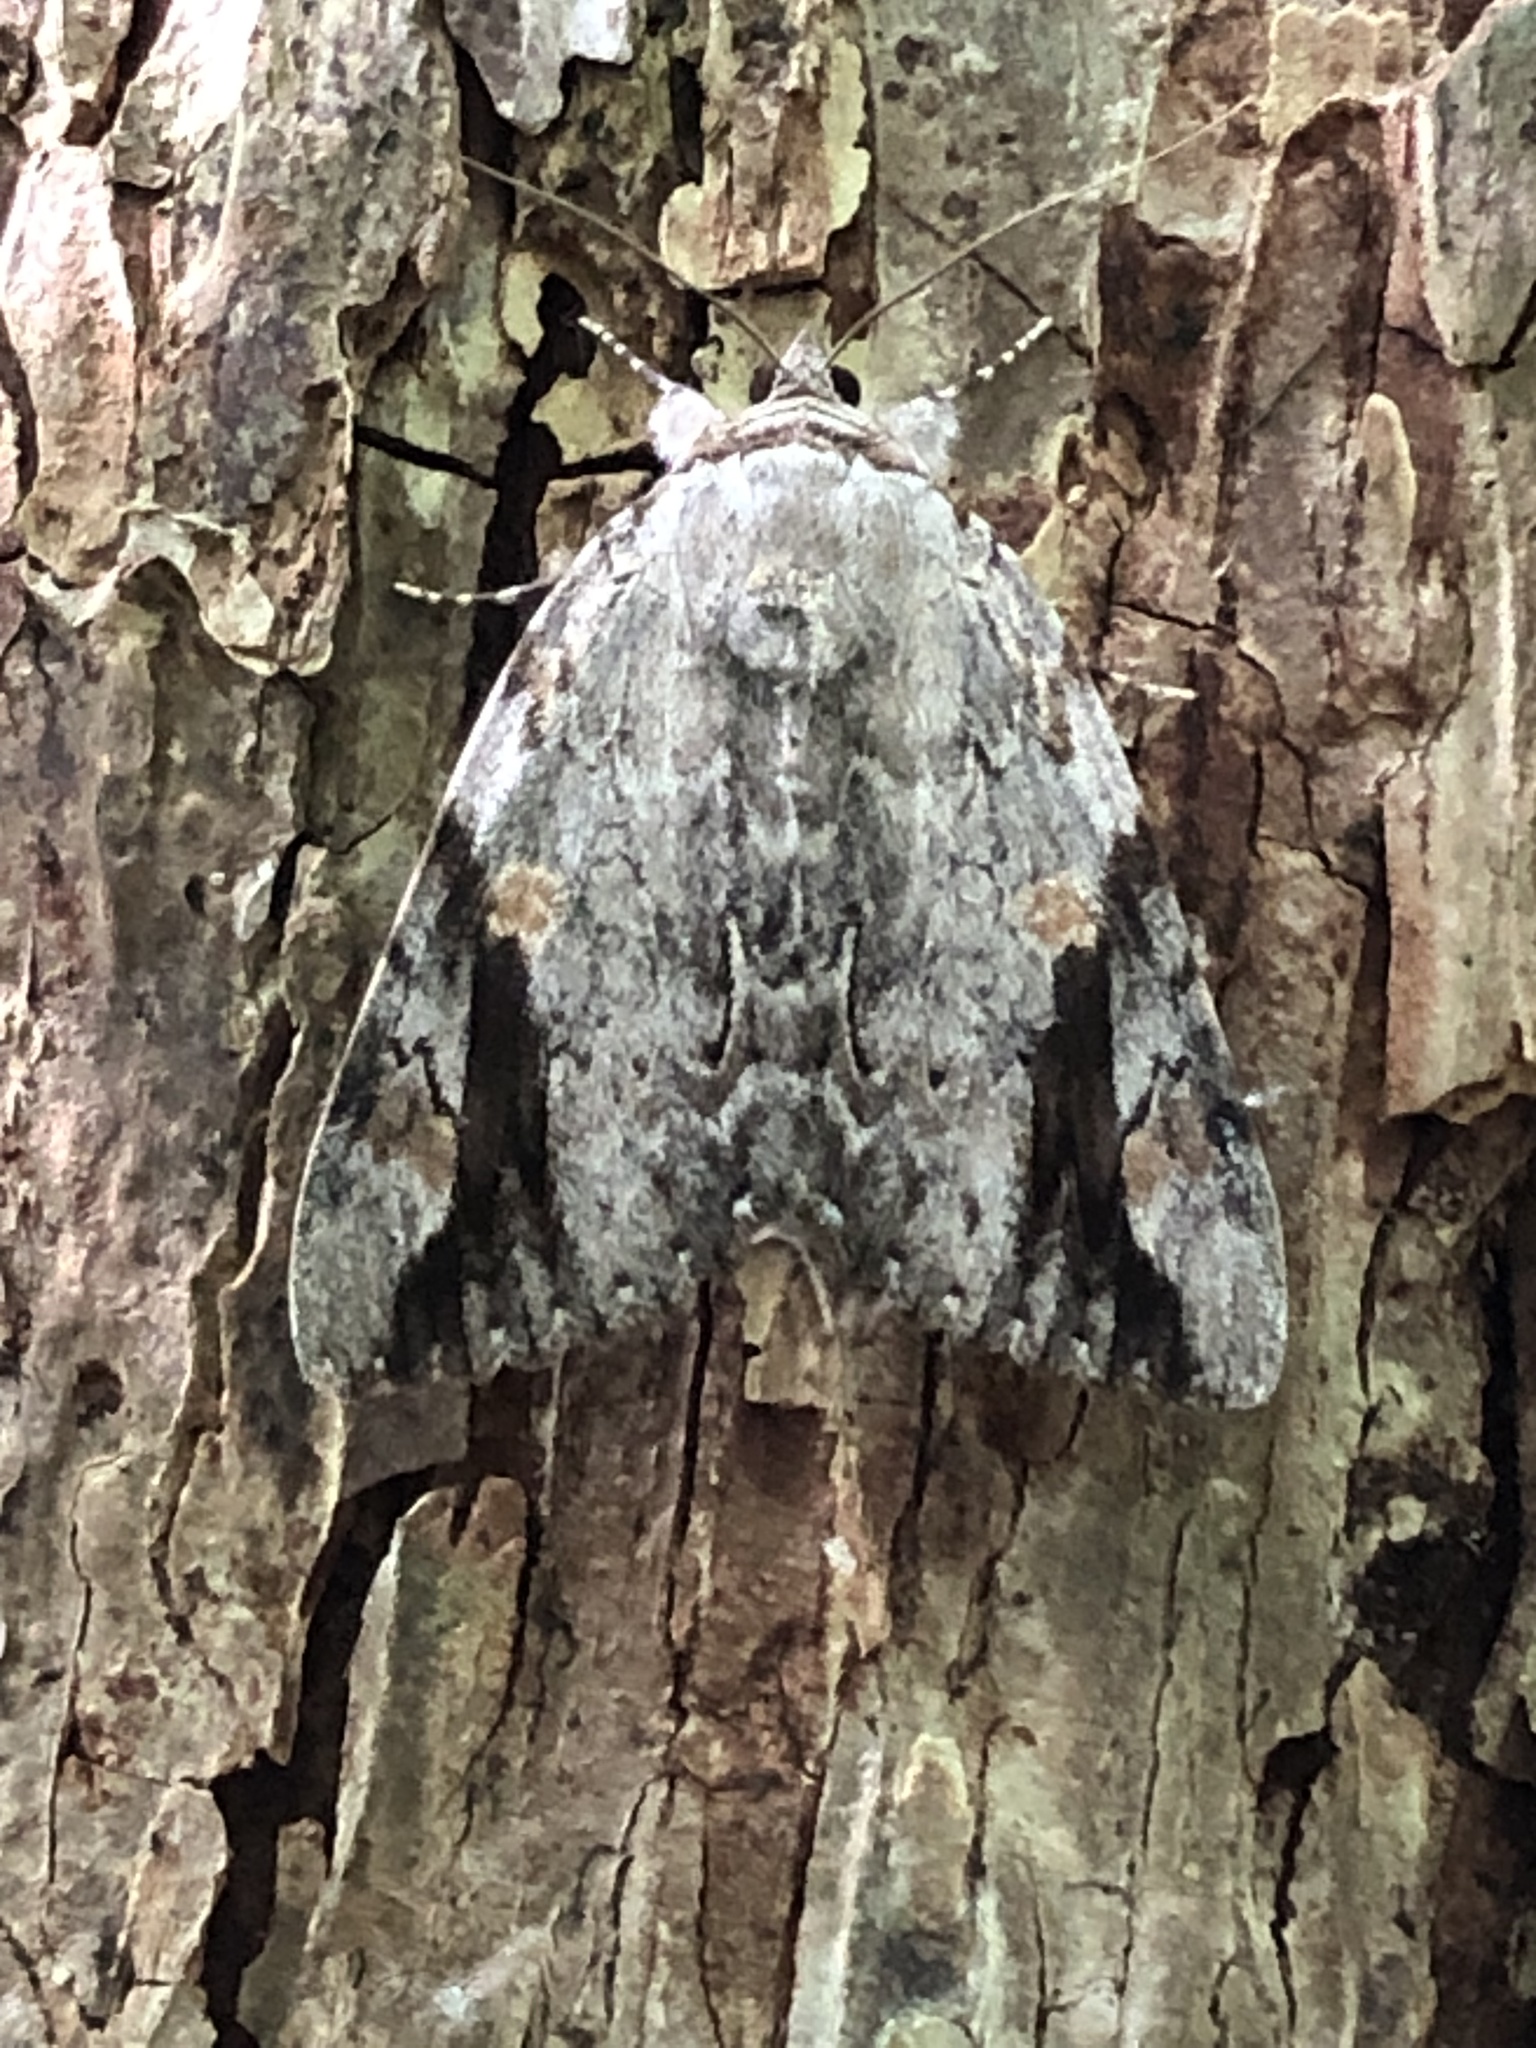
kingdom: Animalia
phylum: Arthropoda
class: Insecta
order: Lepidoptera
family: Erebidae
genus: Catocala
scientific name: Catocala maestosa
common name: Sad underwing
